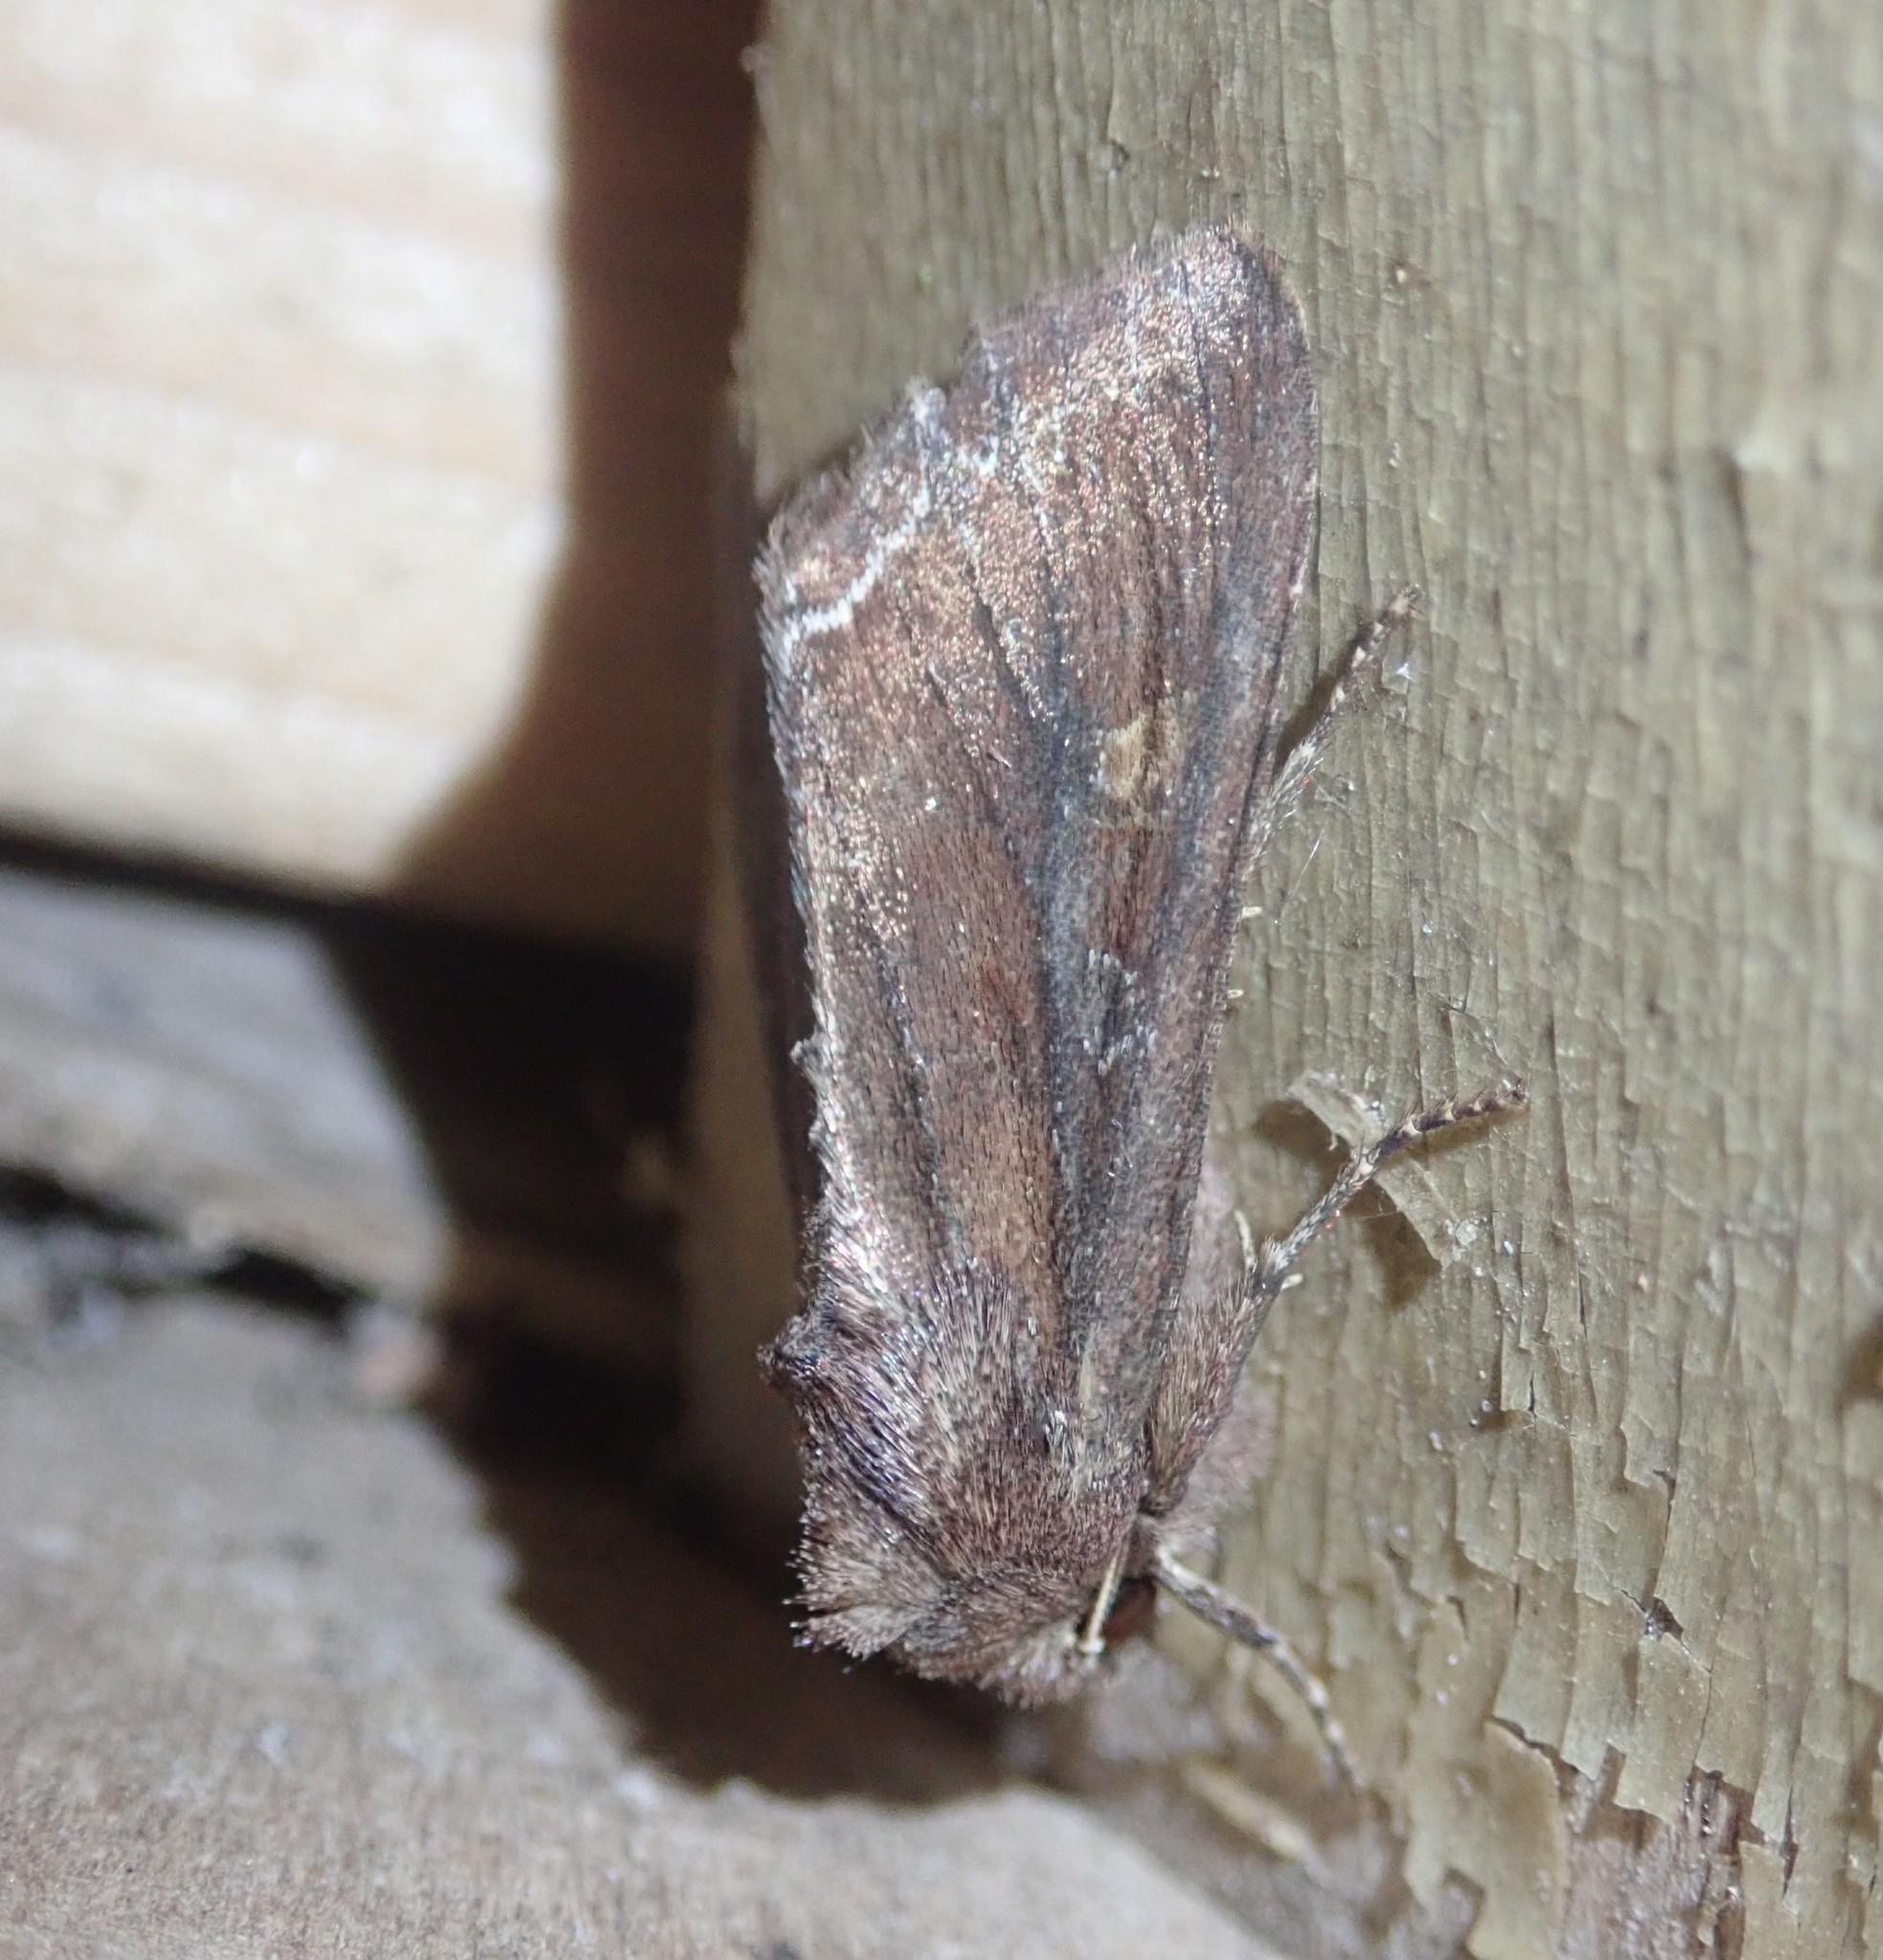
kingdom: Animalia
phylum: Arthropoda
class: Insecta
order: Lepidoptera
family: Noctuidae
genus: Lacanobia
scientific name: Lacanobia oleracea
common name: Bright-line brown-eye
